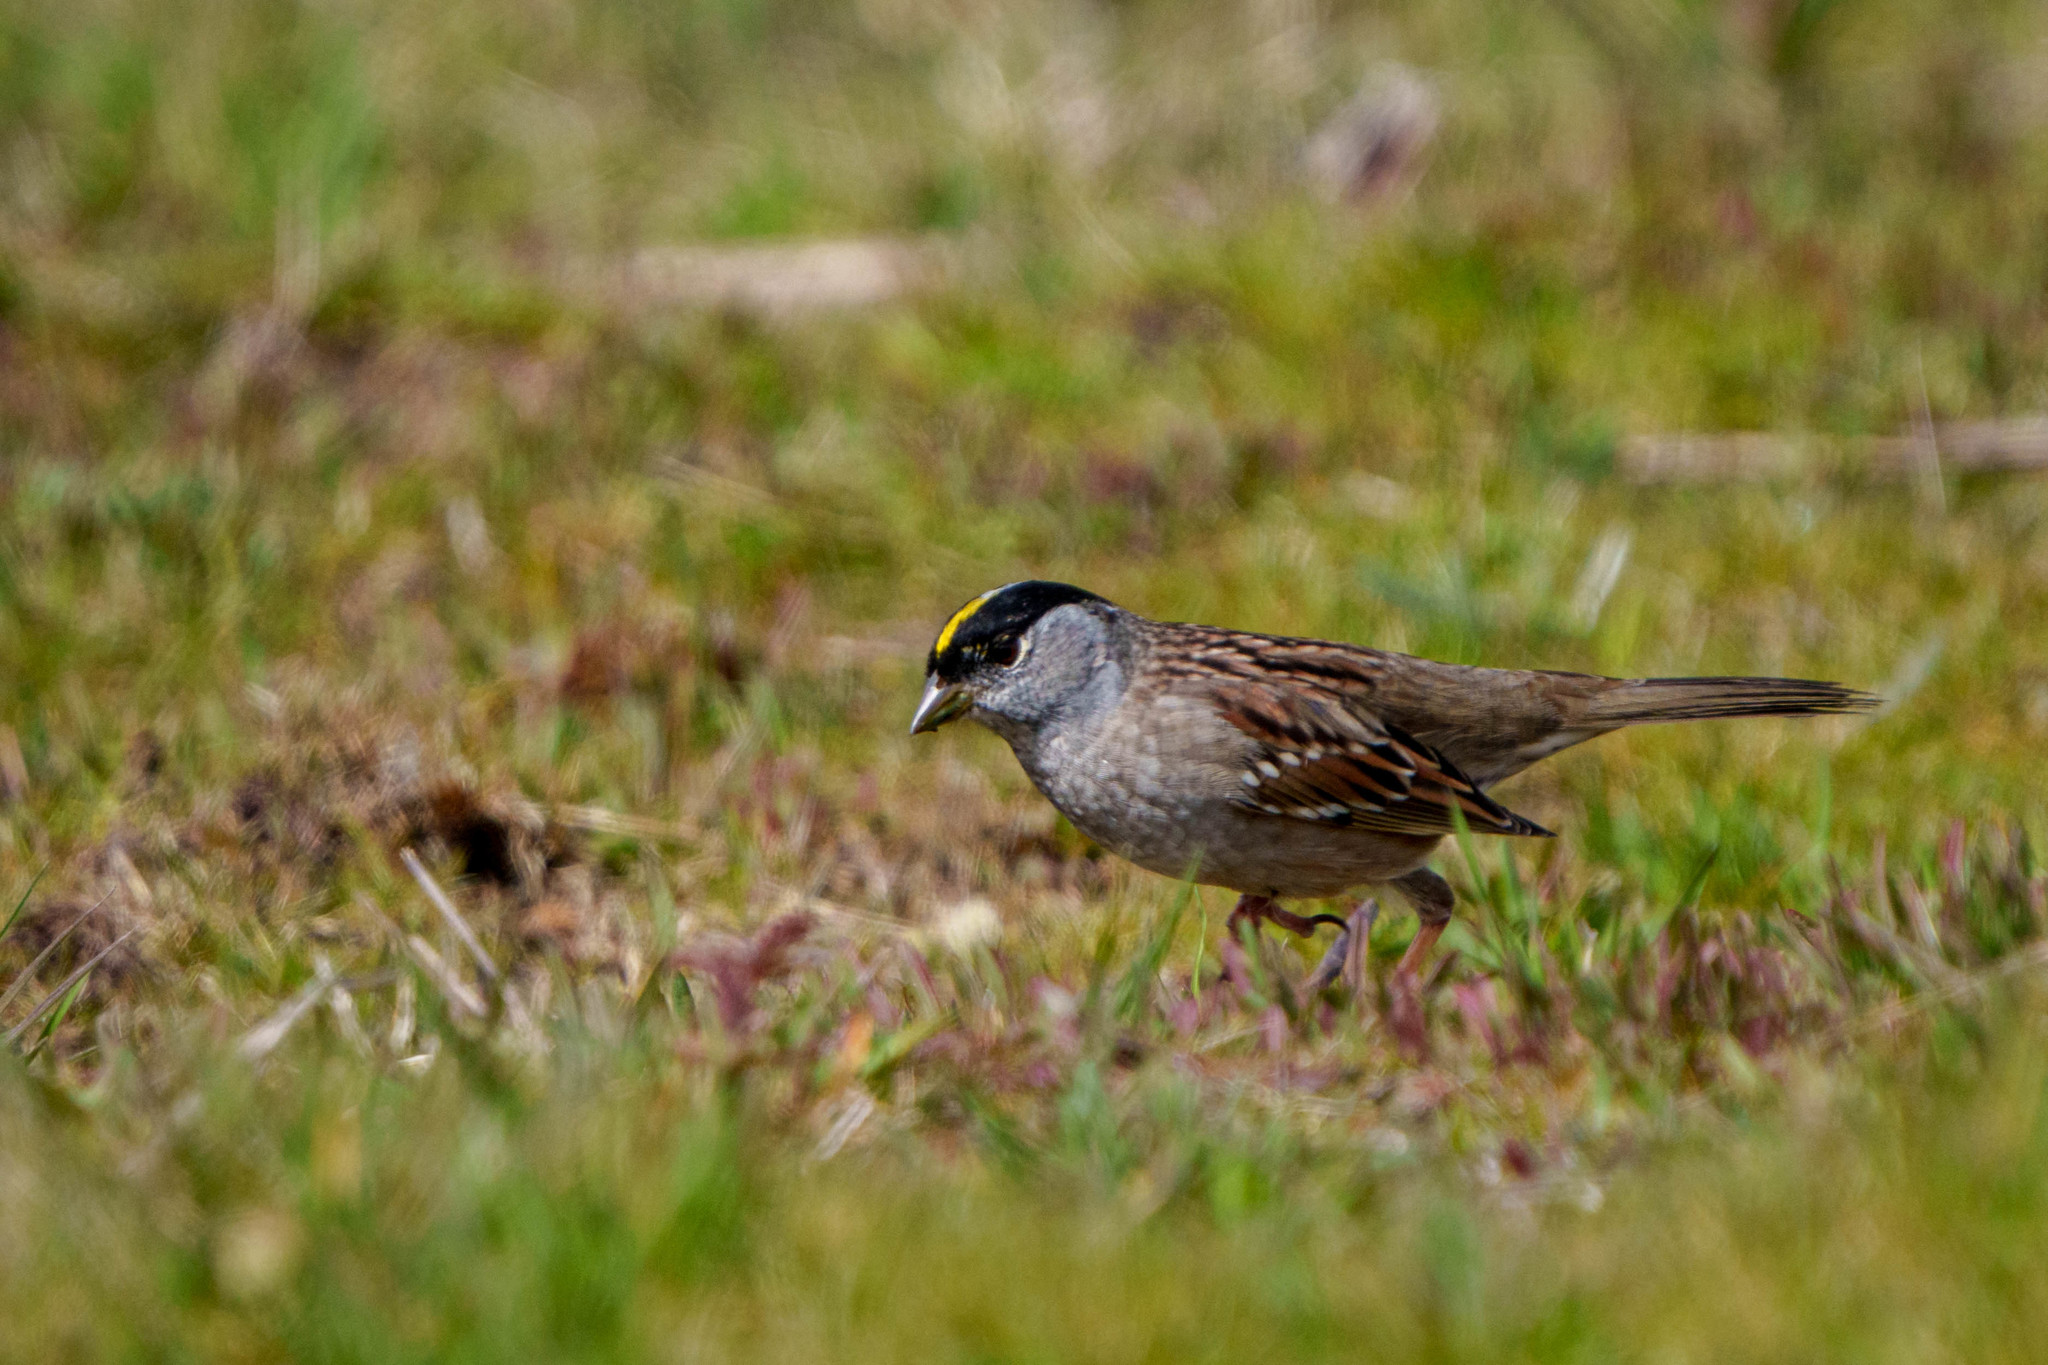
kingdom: Animalia
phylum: Chordata
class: Aves
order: Passeriformes
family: Passerellidae
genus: Zonotrichia
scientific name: Zonotrichia atricapilla
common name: Golden-crowned sparrow
